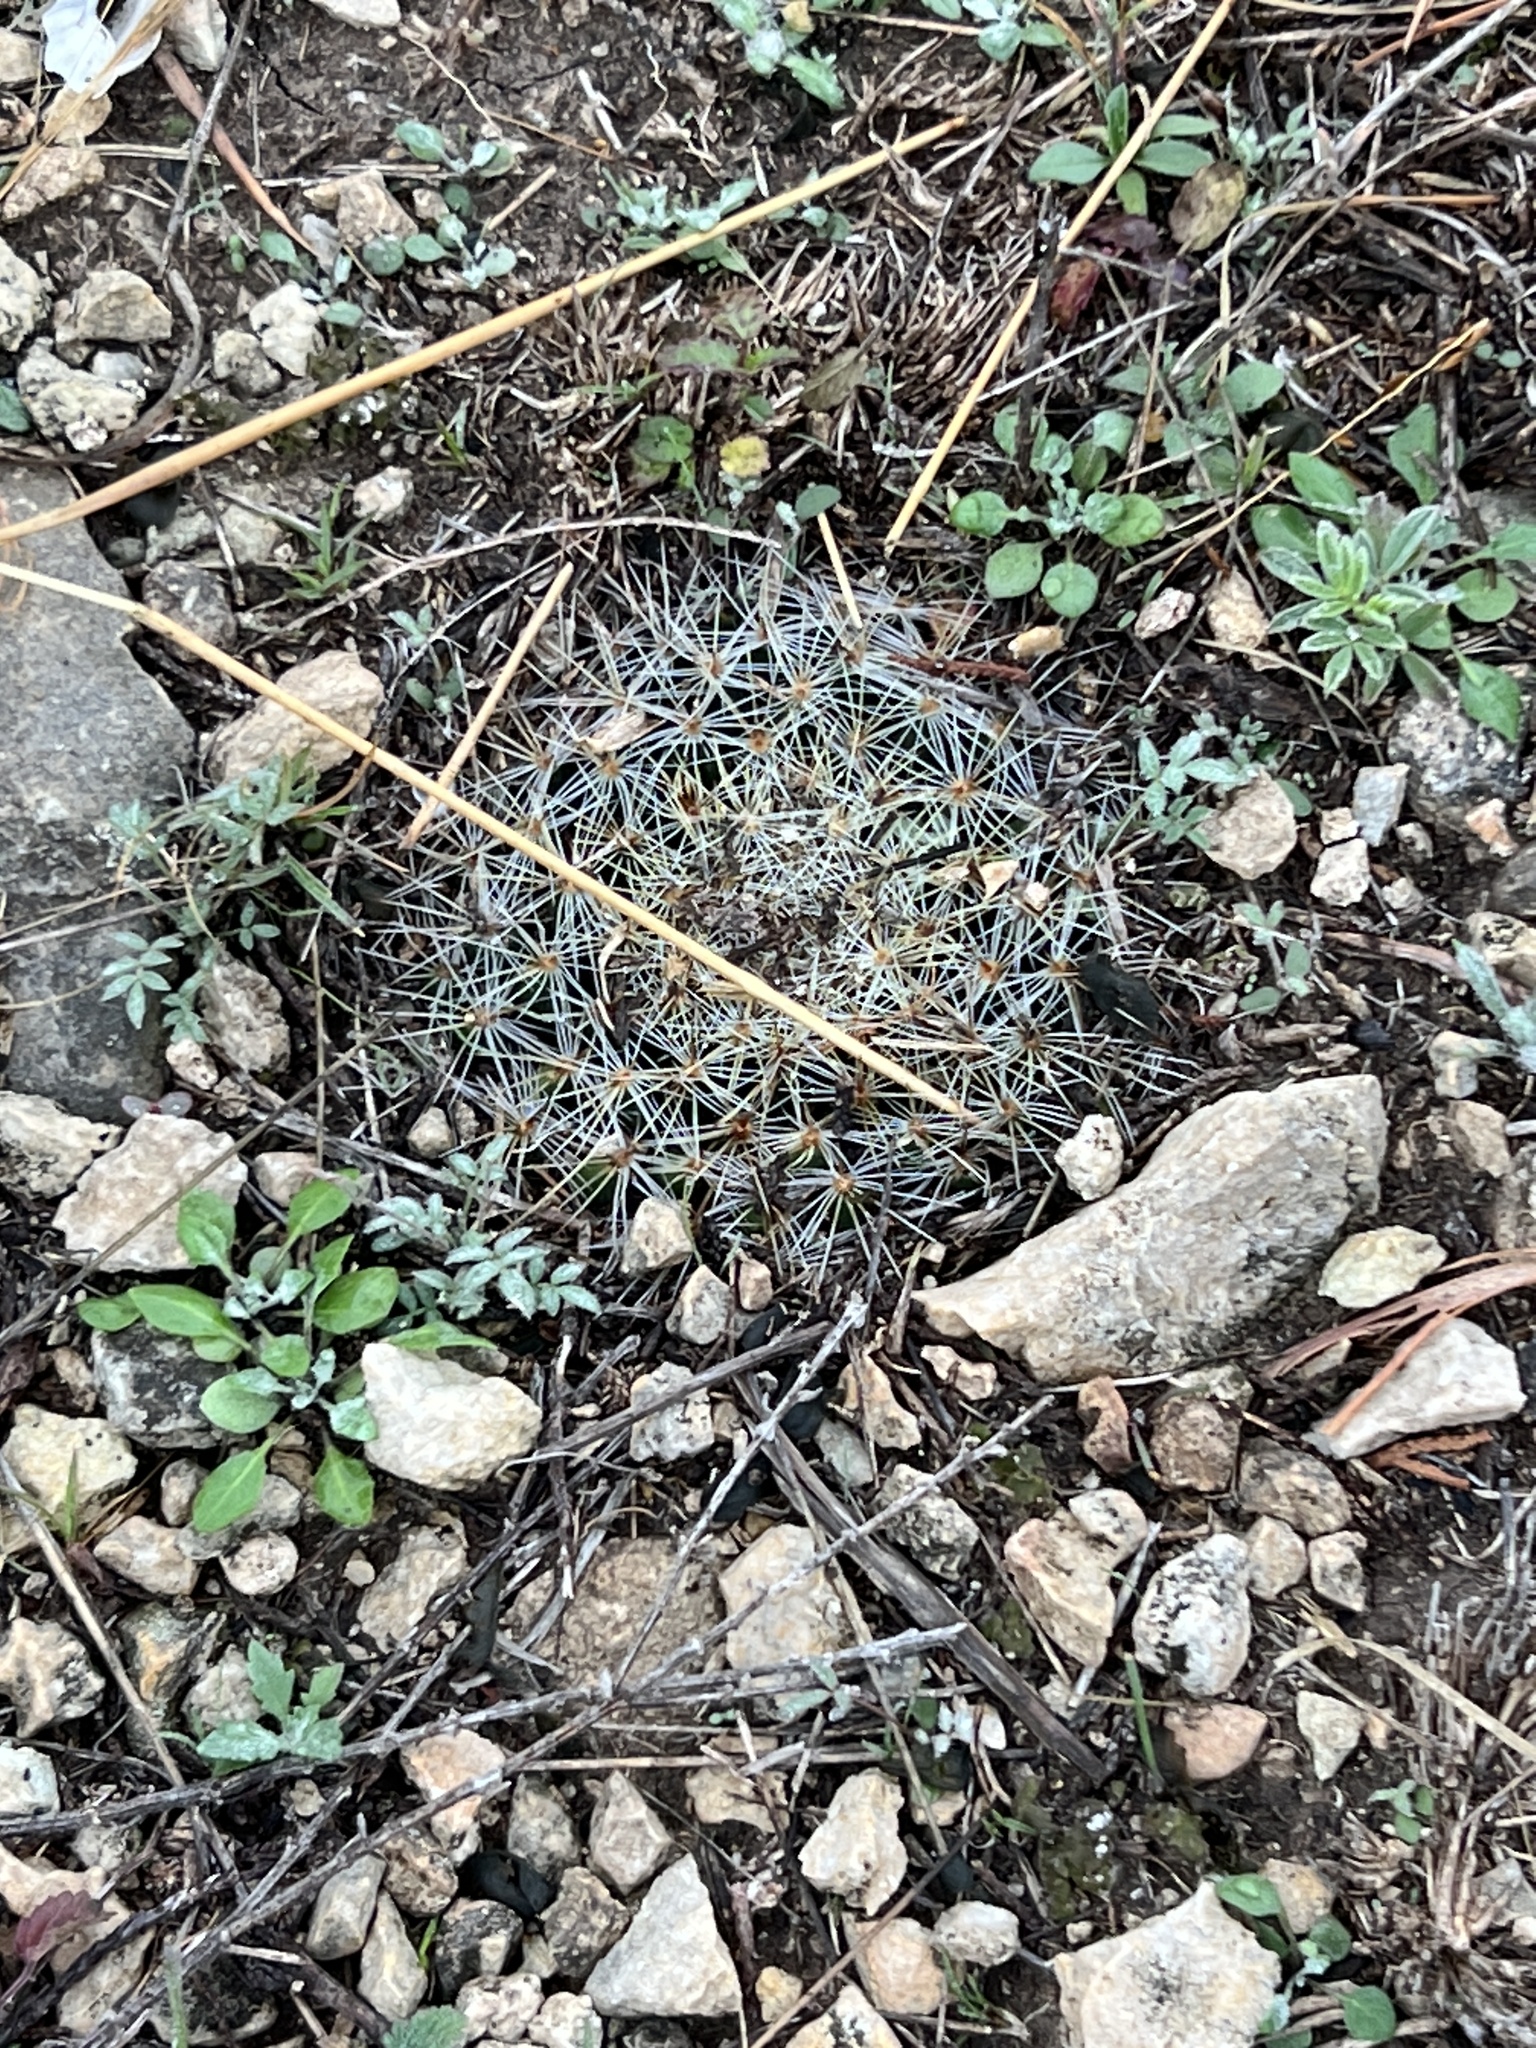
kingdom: Plantae
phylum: Tracheophyta
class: Magnoliopsida
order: Caryophyllales
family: Cactaceae
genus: Mammillaria
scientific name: Mammillaria heyderi
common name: Little nipple cactus
